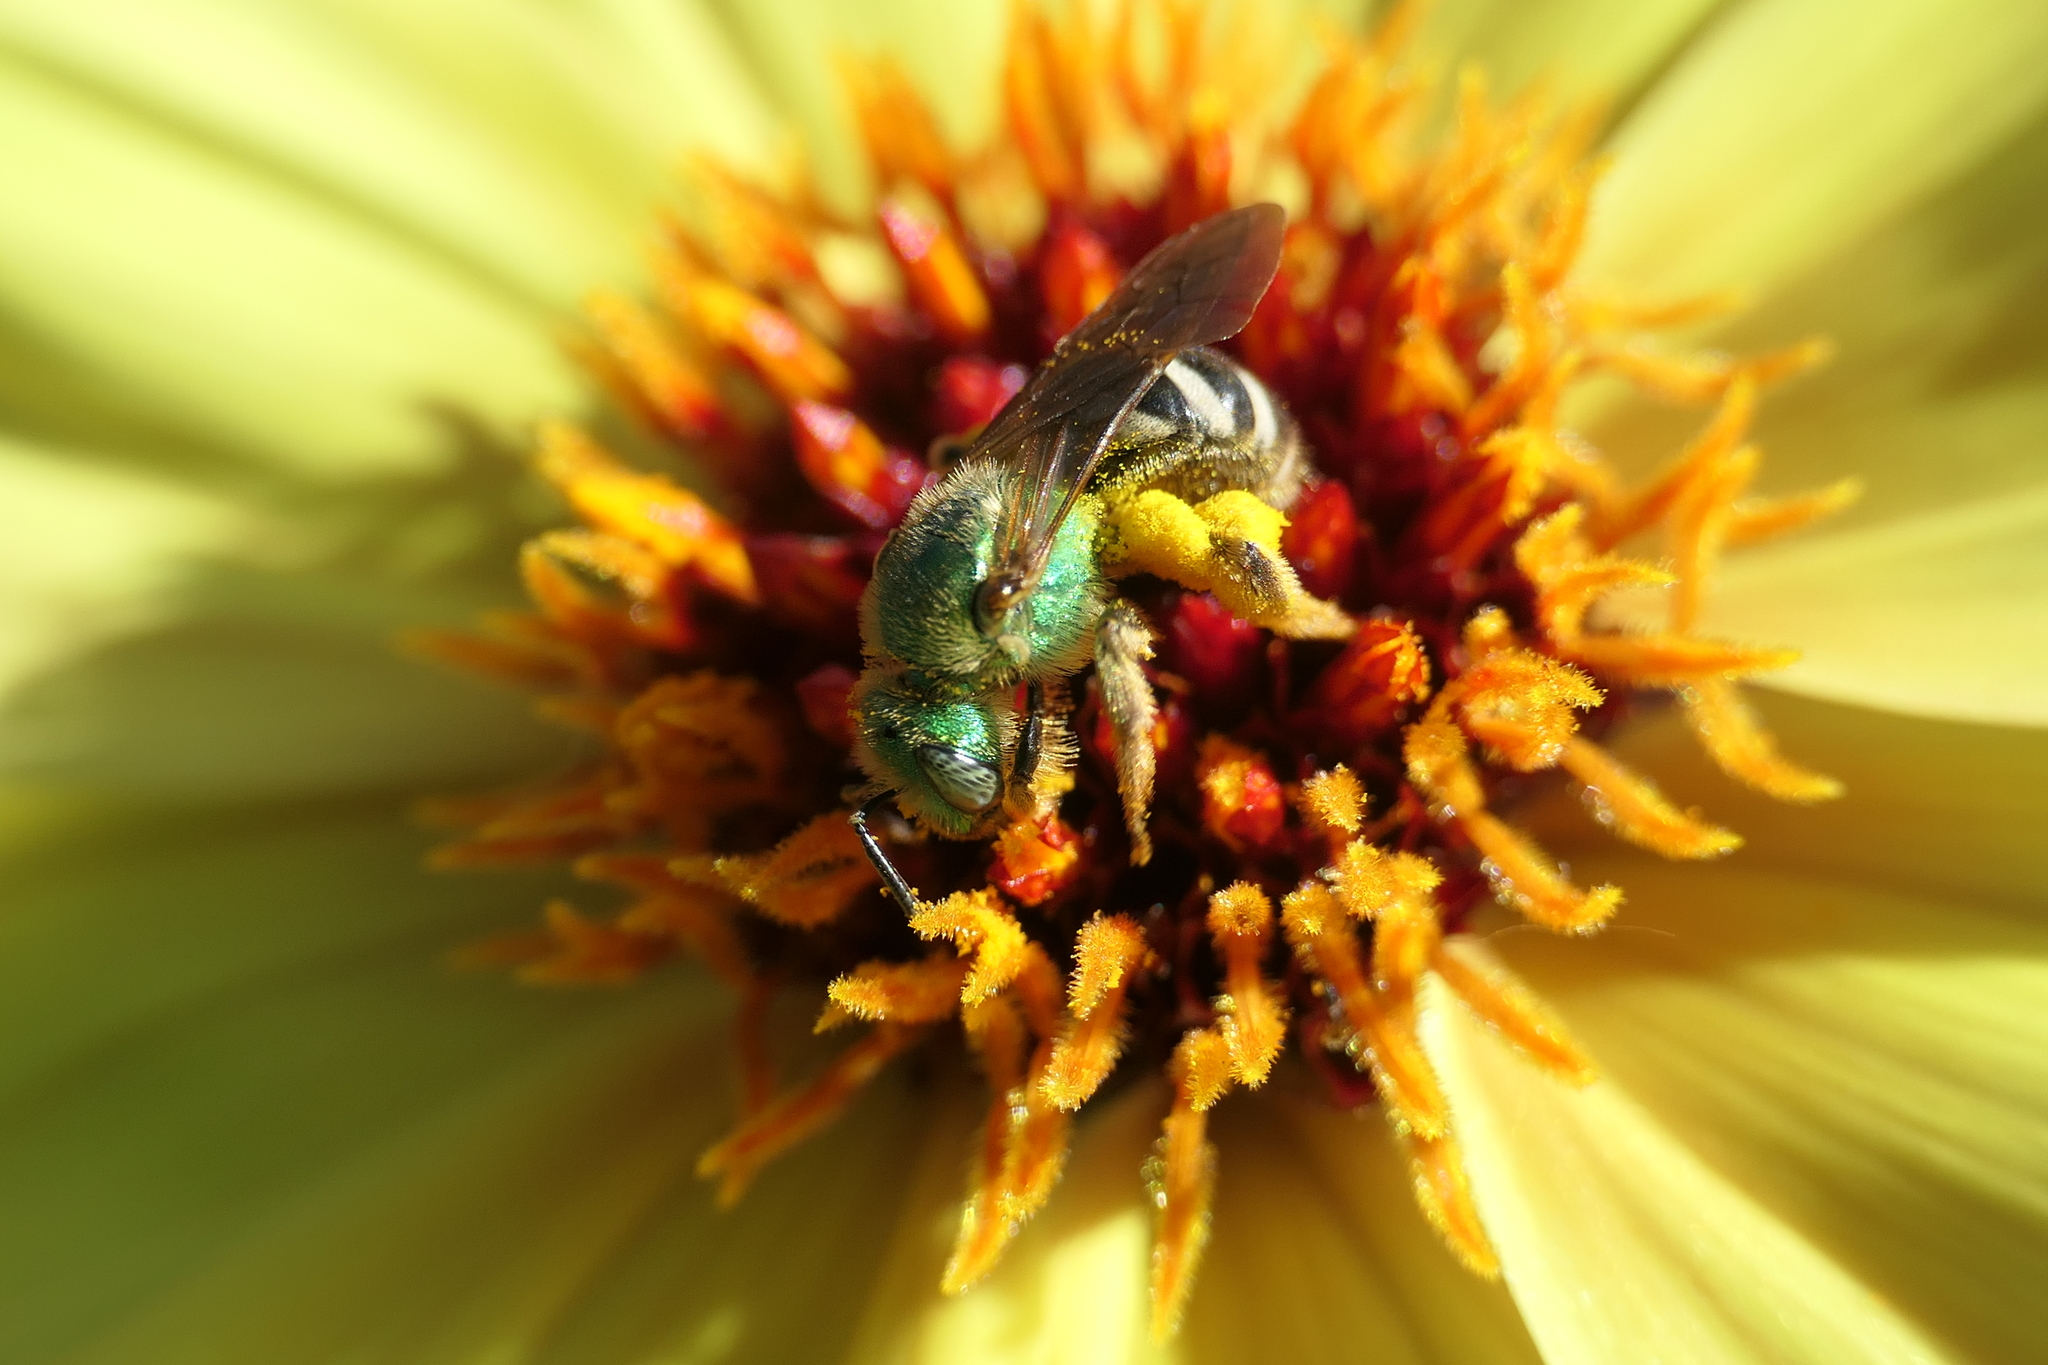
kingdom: Animalia
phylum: Arthropoda
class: Insecta
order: Hymenoptera
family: Halictidae
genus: Agapostemon
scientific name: Agapostemon virescens
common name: Bicolored striped sweat bee
